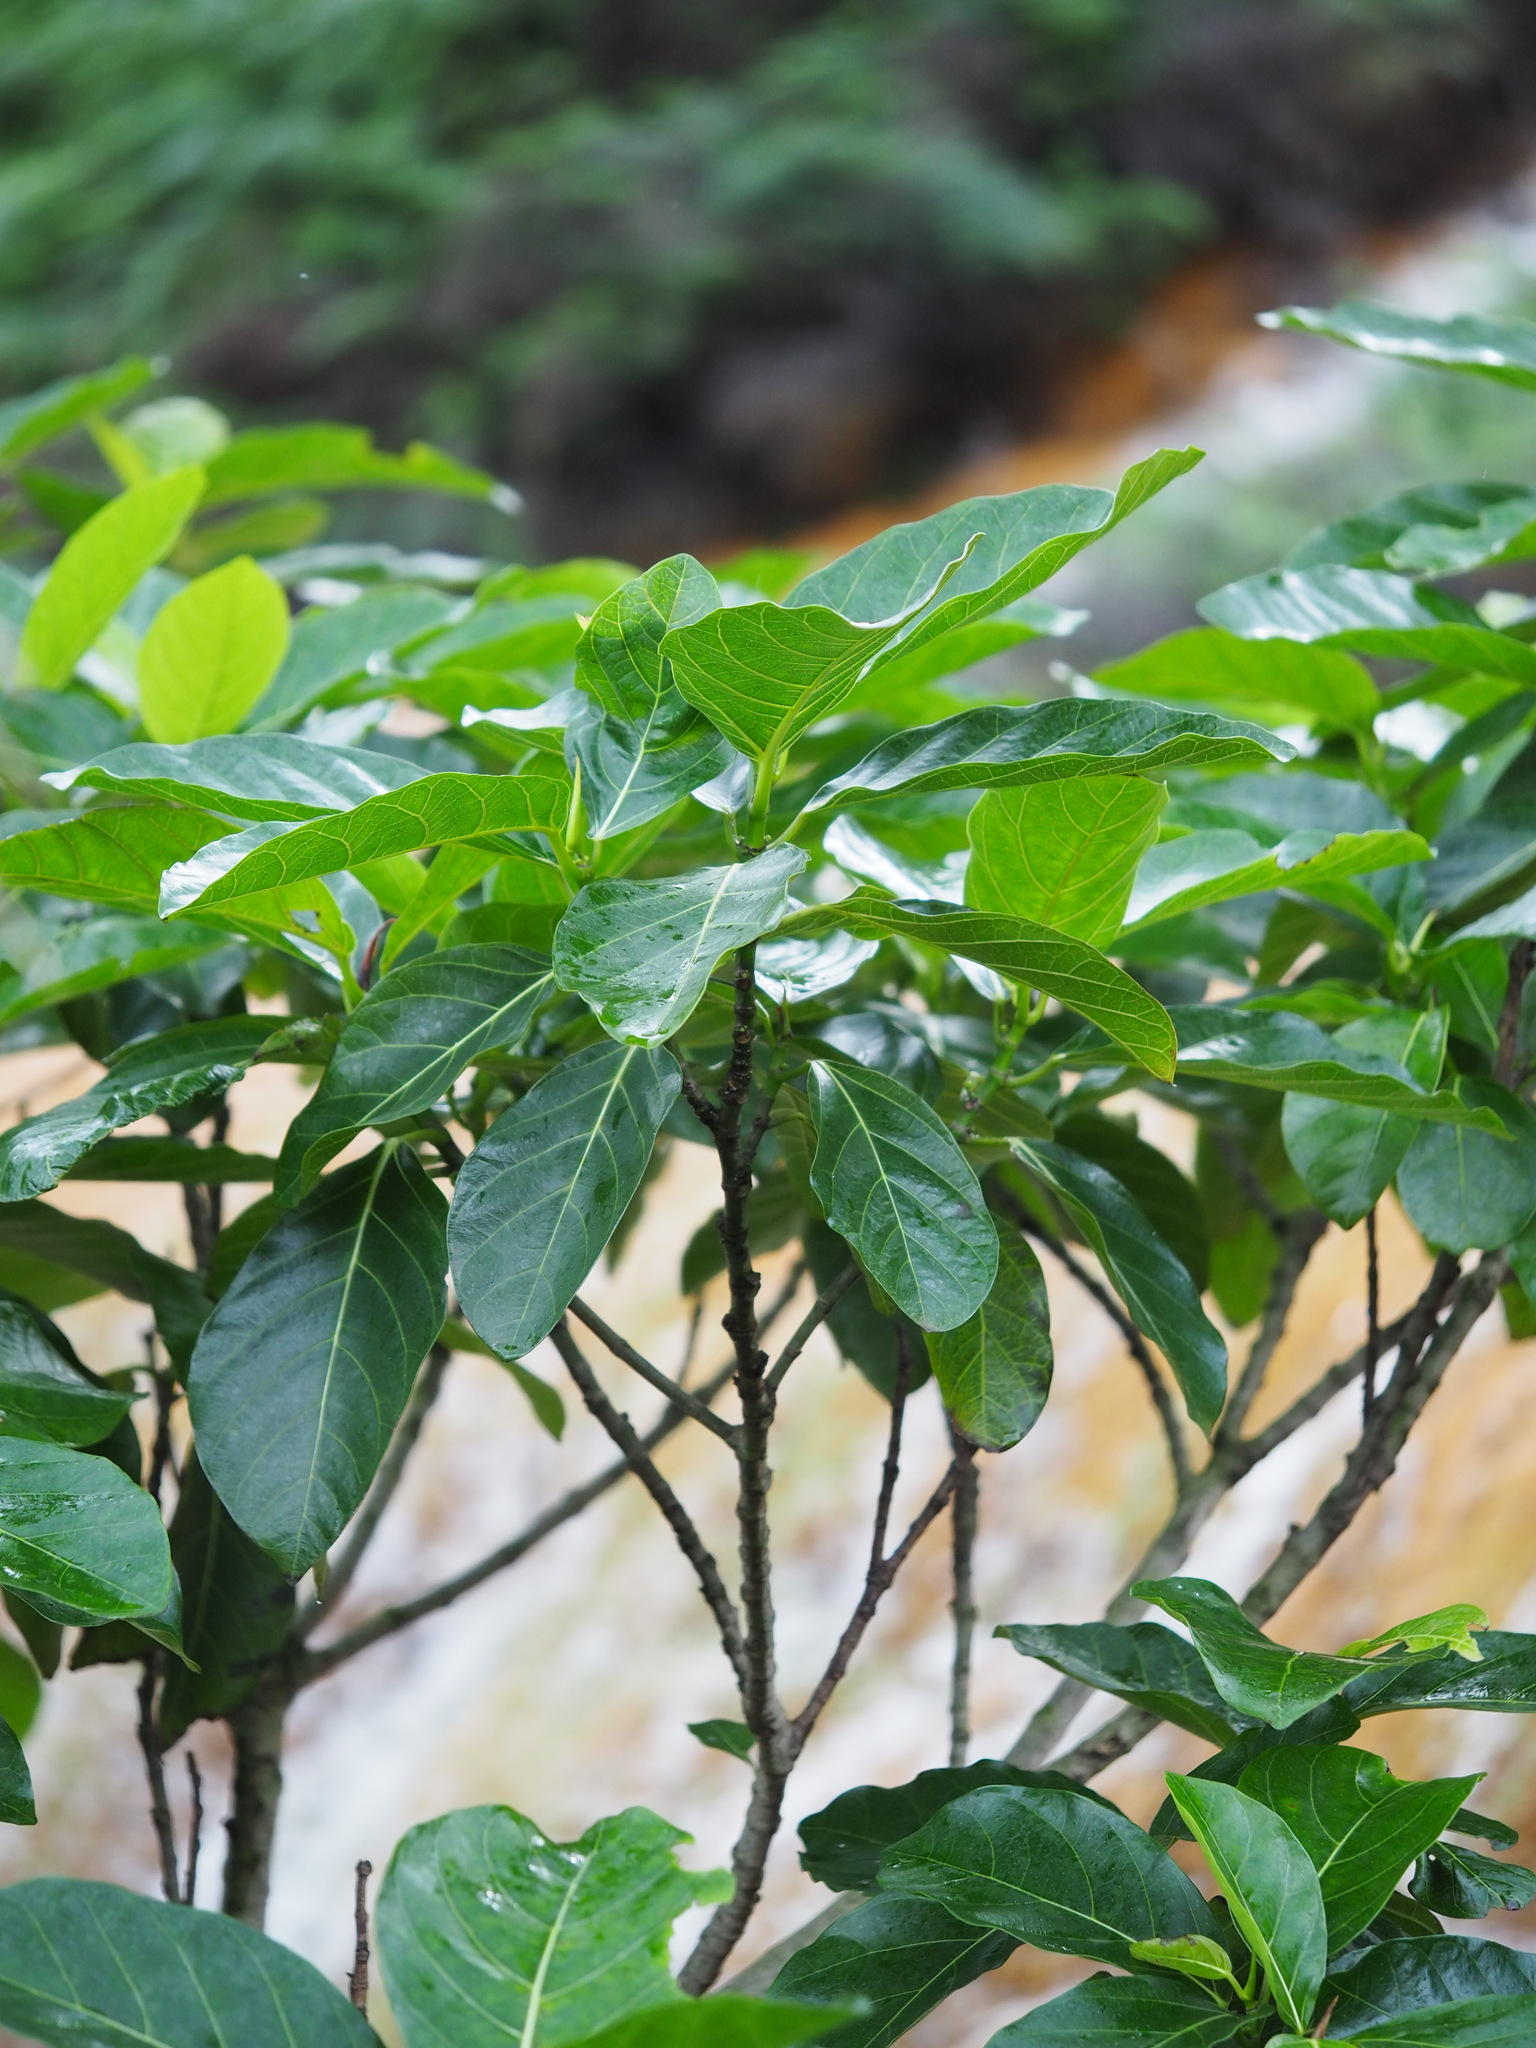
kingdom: Plantae
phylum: Tracheophyta
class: Magnoliopsida
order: Rosales
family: Moraceae
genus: Ficus
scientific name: Ficus septica
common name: Septic fig
